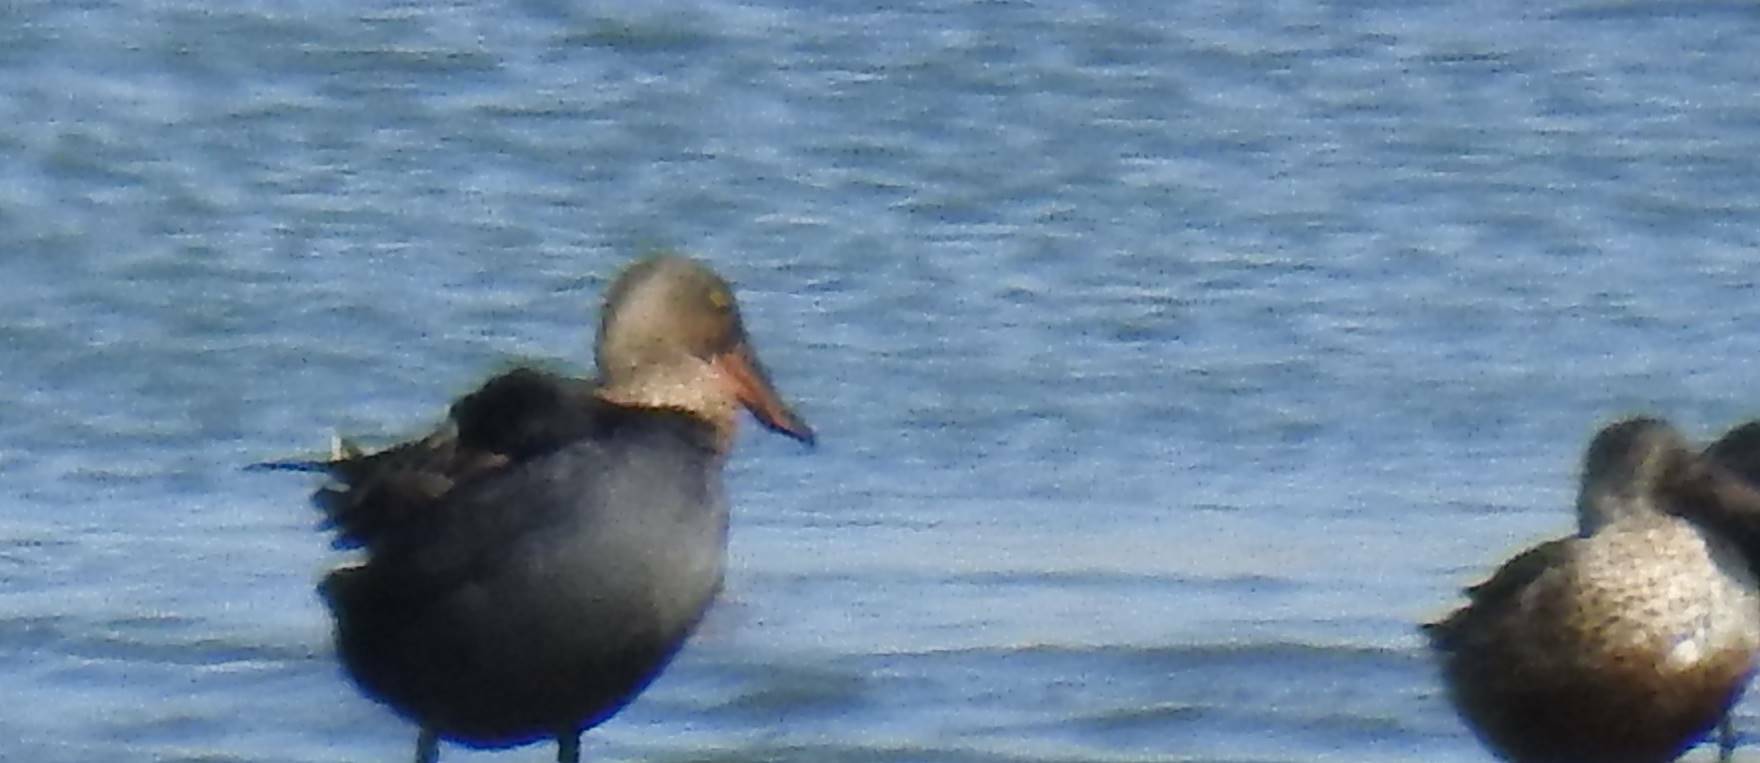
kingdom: Animalia
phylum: Chordata
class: Aves
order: Anseriformes
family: Anatidae
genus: Spatula
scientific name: Spatula clypeata
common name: Northern shoveler
